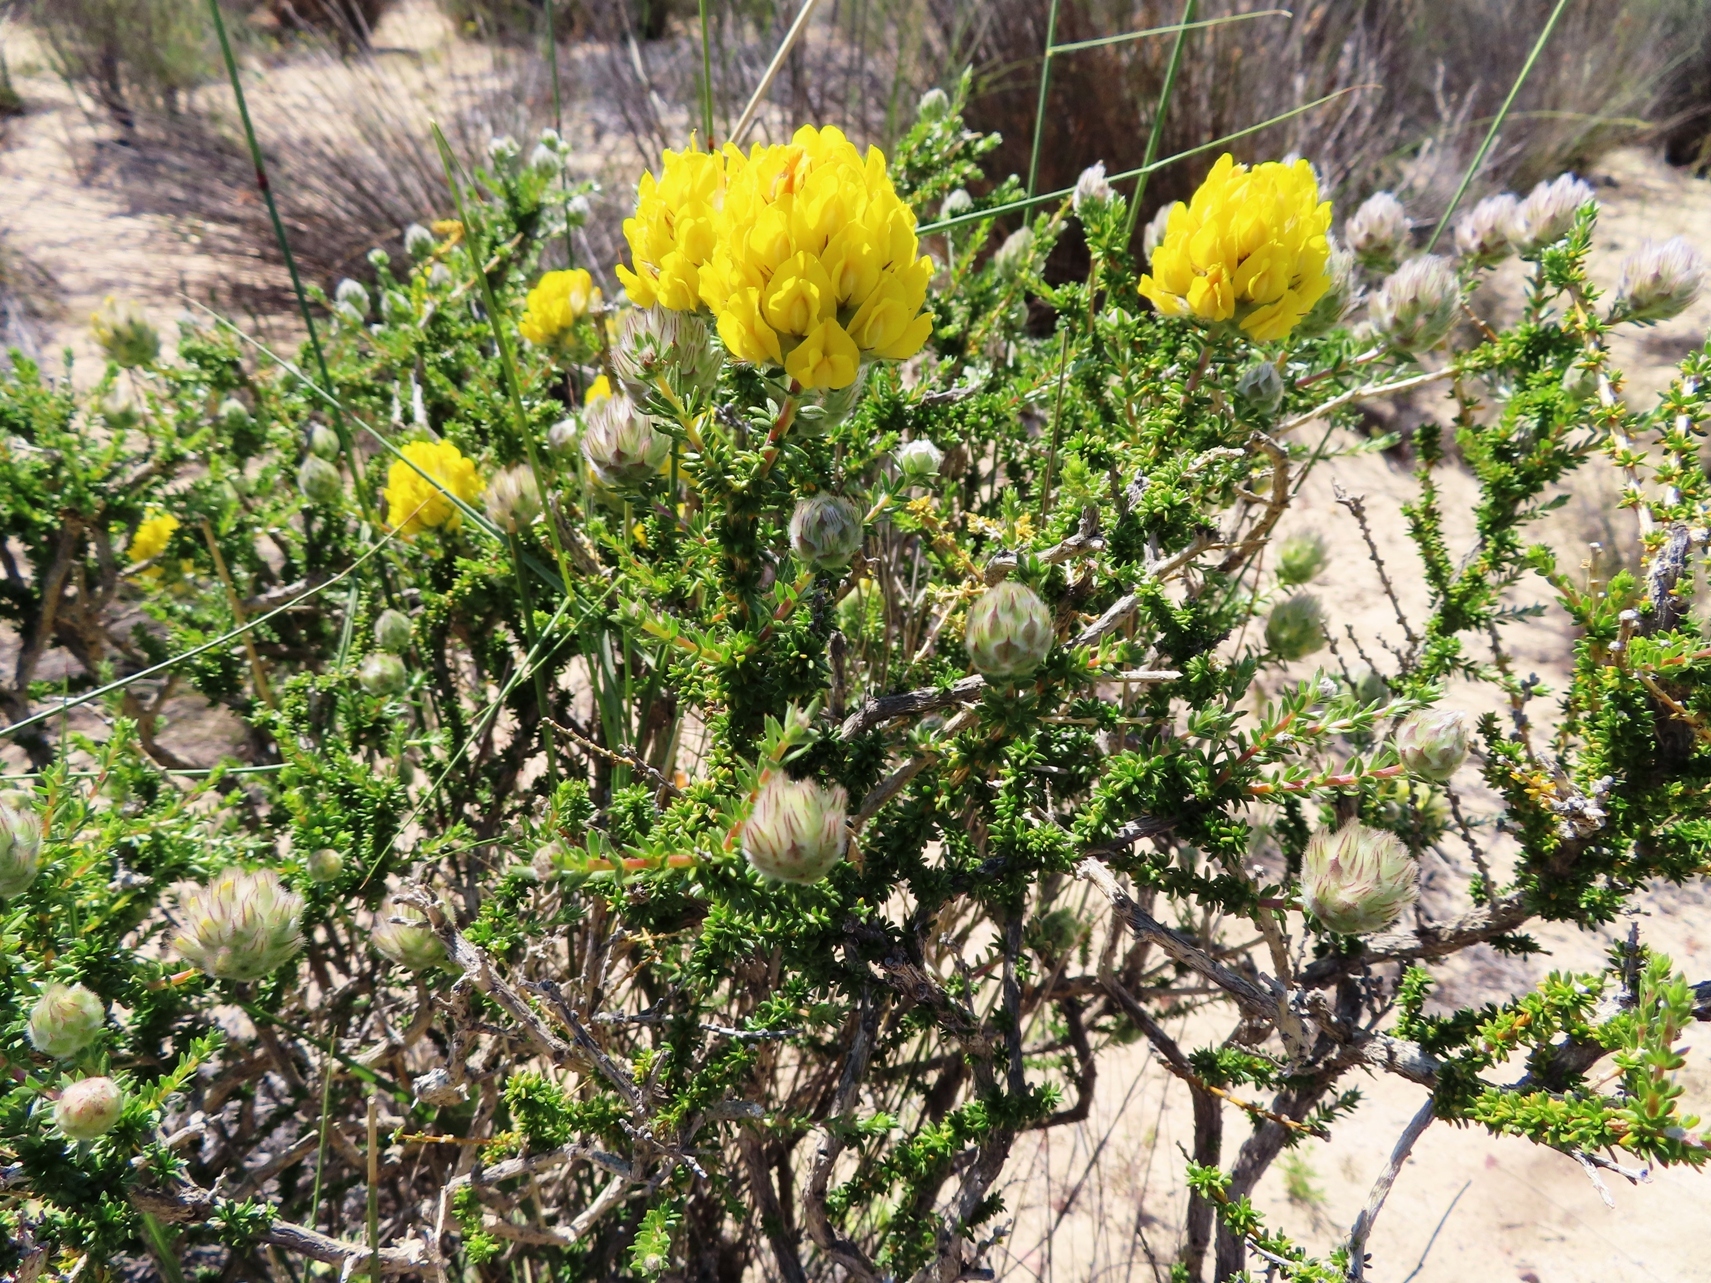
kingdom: Plantae
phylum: Tracheophyta
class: Magnoliopsida
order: Fabales
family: Fabaceae
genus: Aspalathus
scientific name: Aspalathus acocksii
